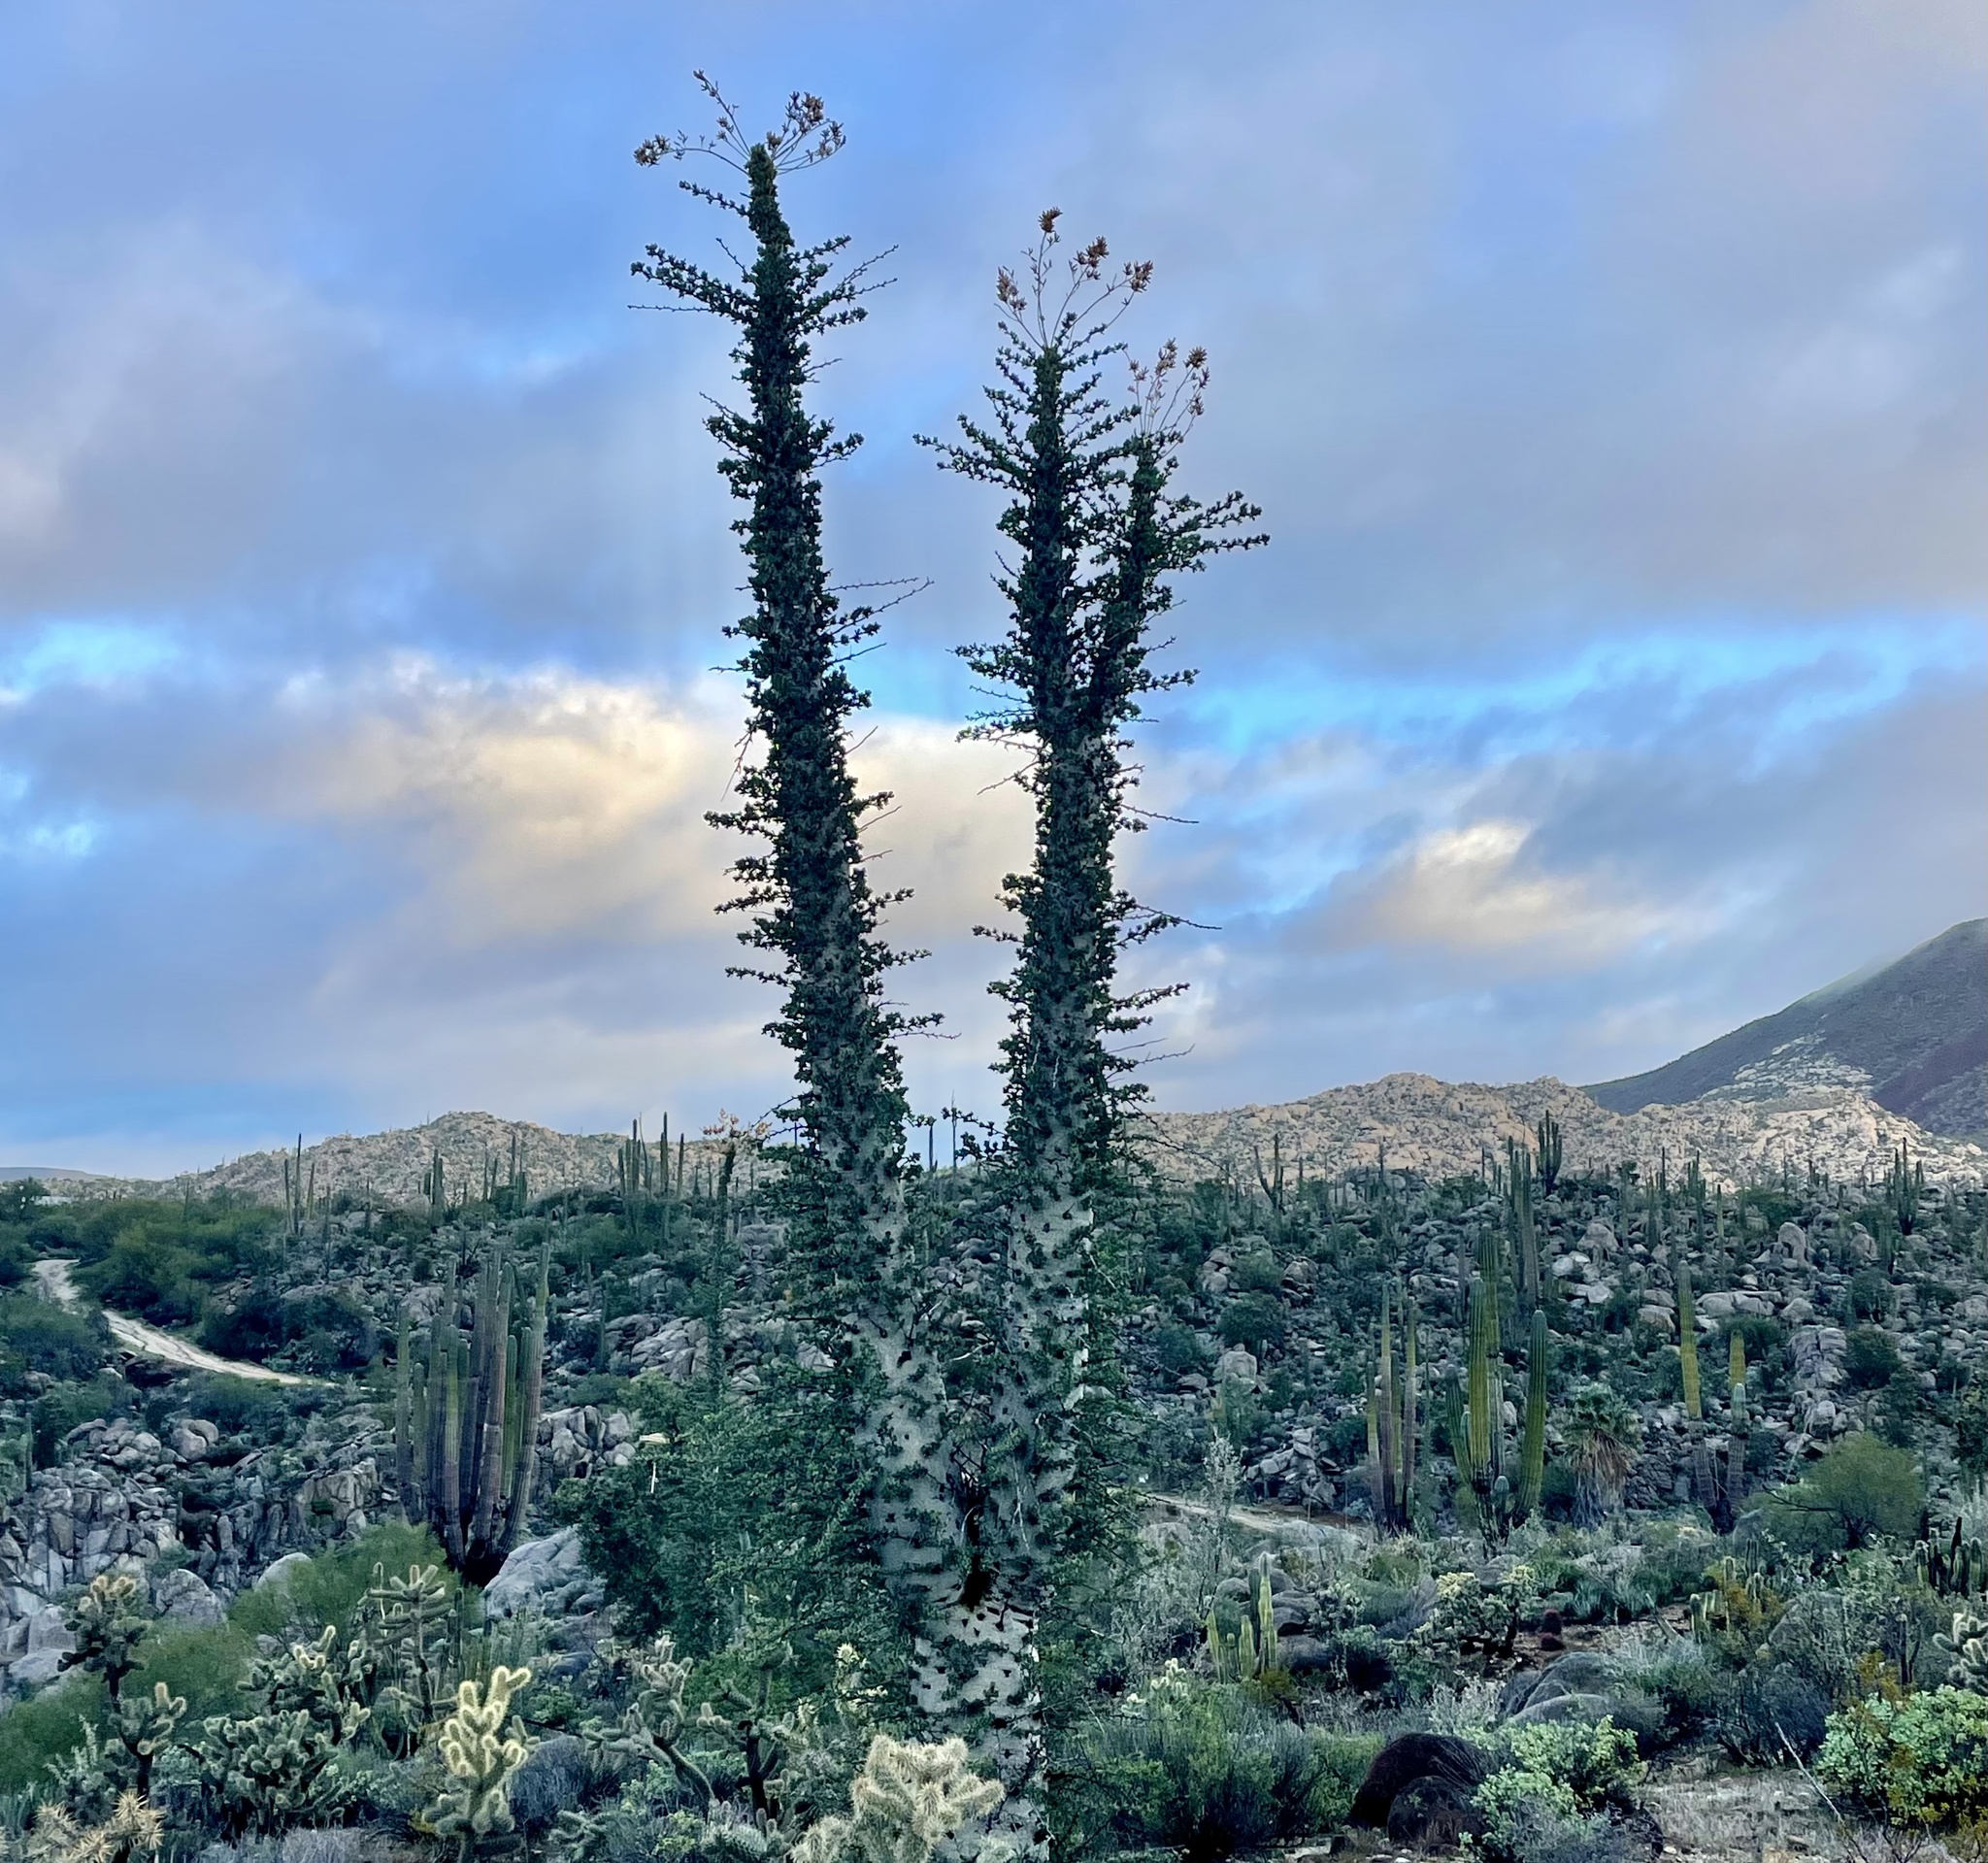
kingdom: Plantae
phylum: Tracheophyta
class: Magnoliopsida
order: Ericales
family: Fouquieriaceae
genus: Fouquieria
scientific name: Fouquieria columnaris
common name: Boojumtree
